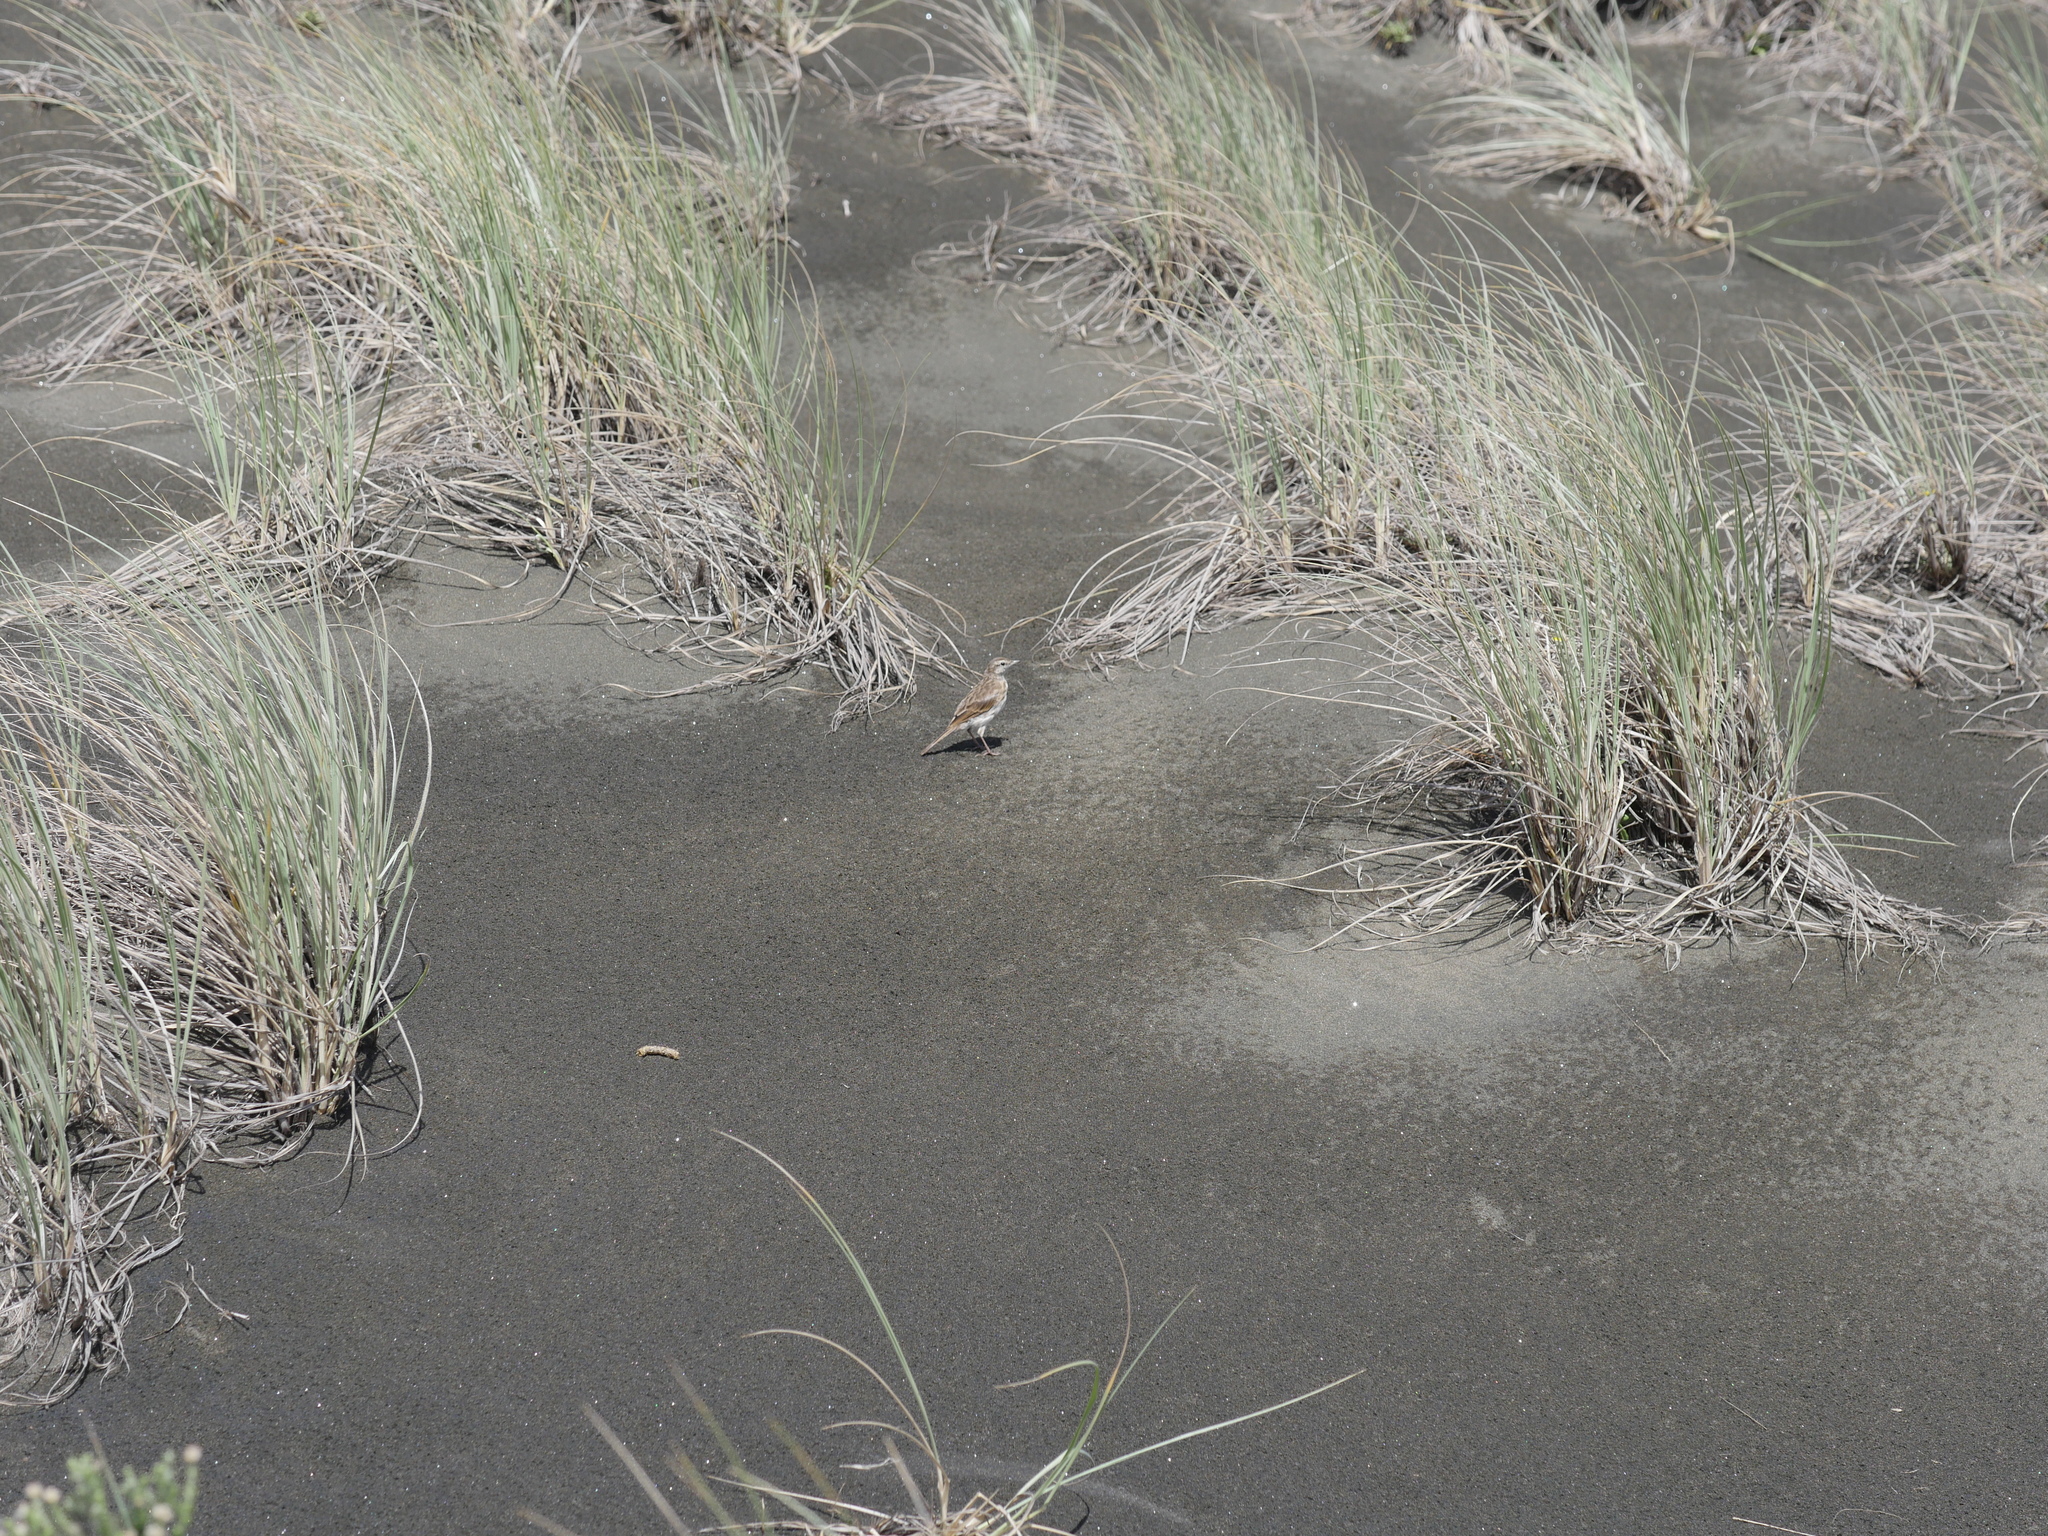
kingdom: Animalia
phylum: Chordata
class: Aves
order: Passeriformes
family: Motacillidae
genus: Anthus
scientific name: Anthus novaeseelandiae
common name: New zealand pipit
